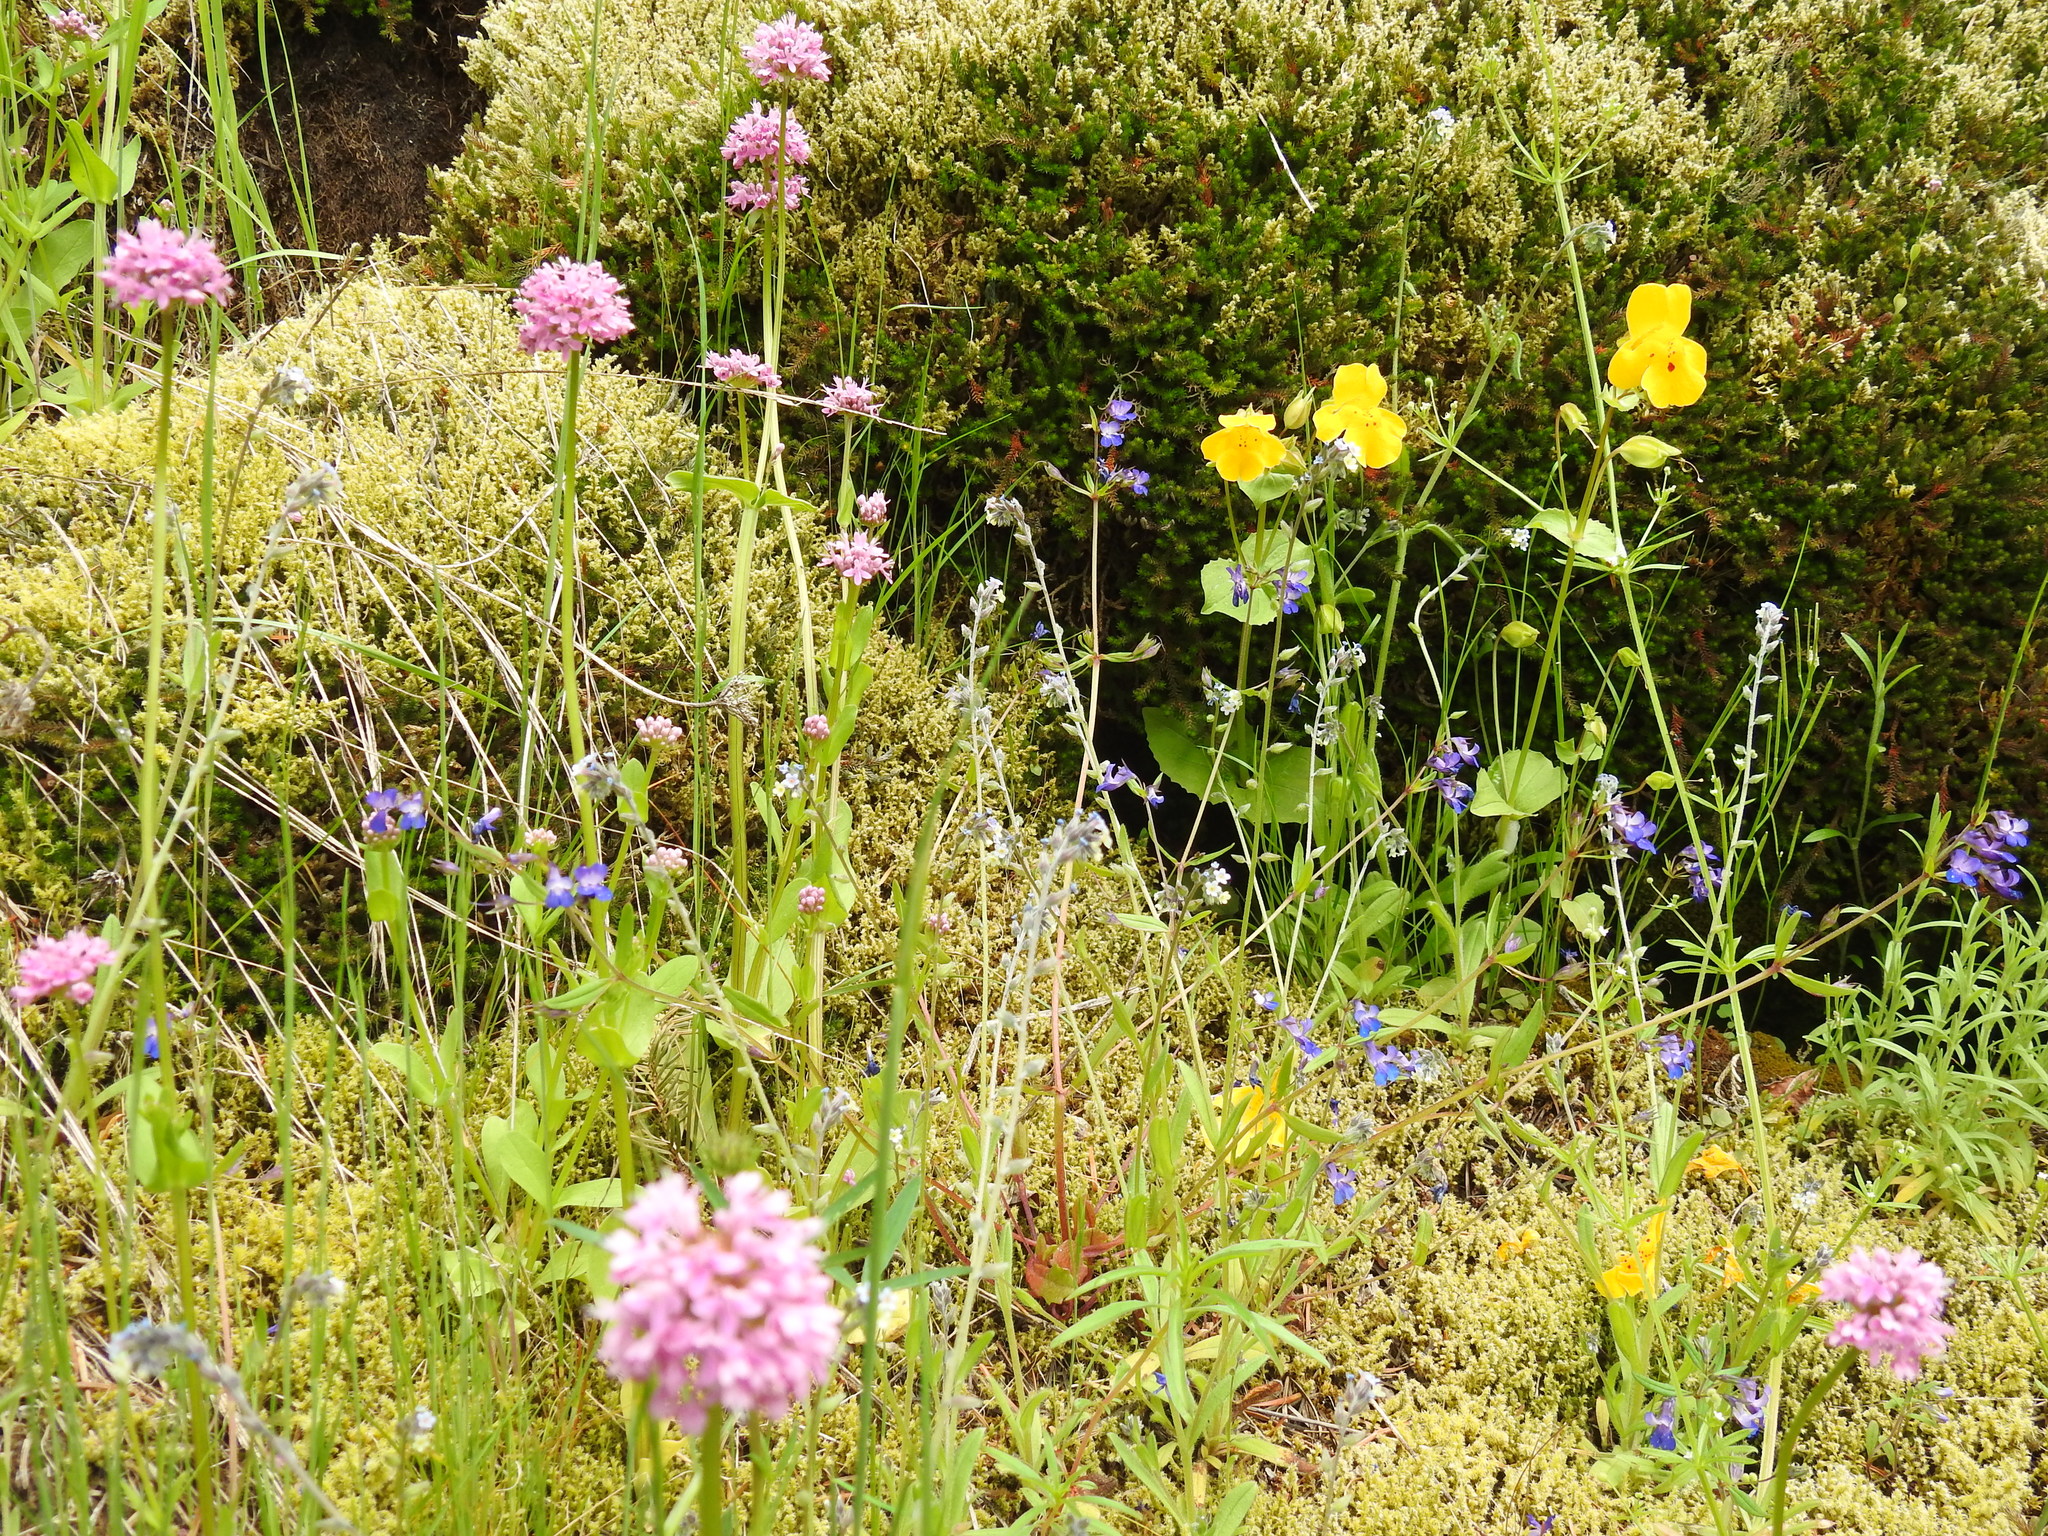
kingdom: Plantae
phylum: Tracheophyta
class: Magnoliopsida
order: Dipsacales
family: Caprifoliaceae
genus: Plectritis
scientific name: Plectritis congesta
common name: Pink plectritis
